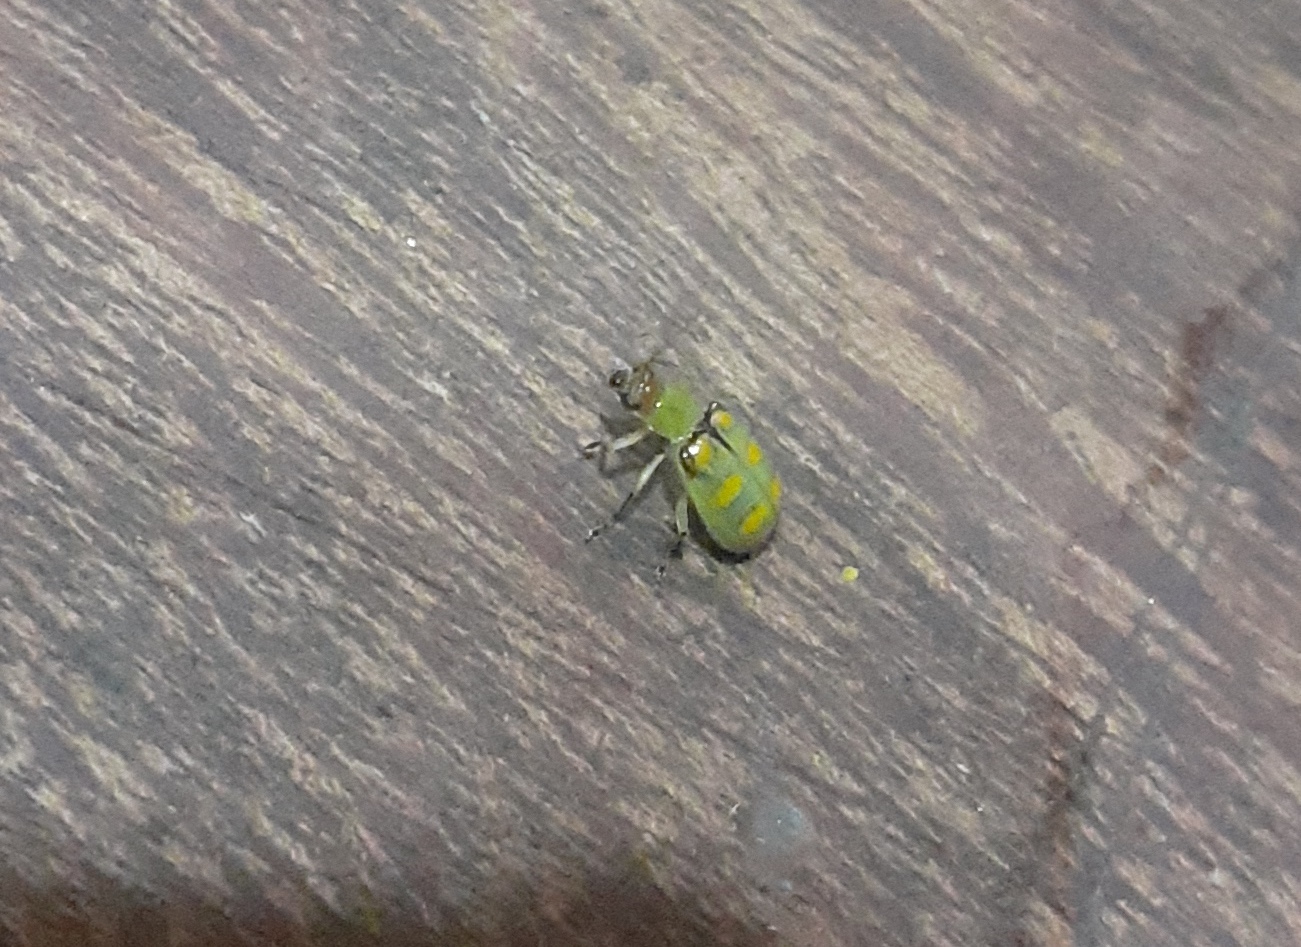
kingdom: Animalia
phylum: Arthropoda
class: Insecta
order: Coleoptera
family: Chrysomelidae
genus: Diabrotica
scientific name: Diabrotica speciosa
